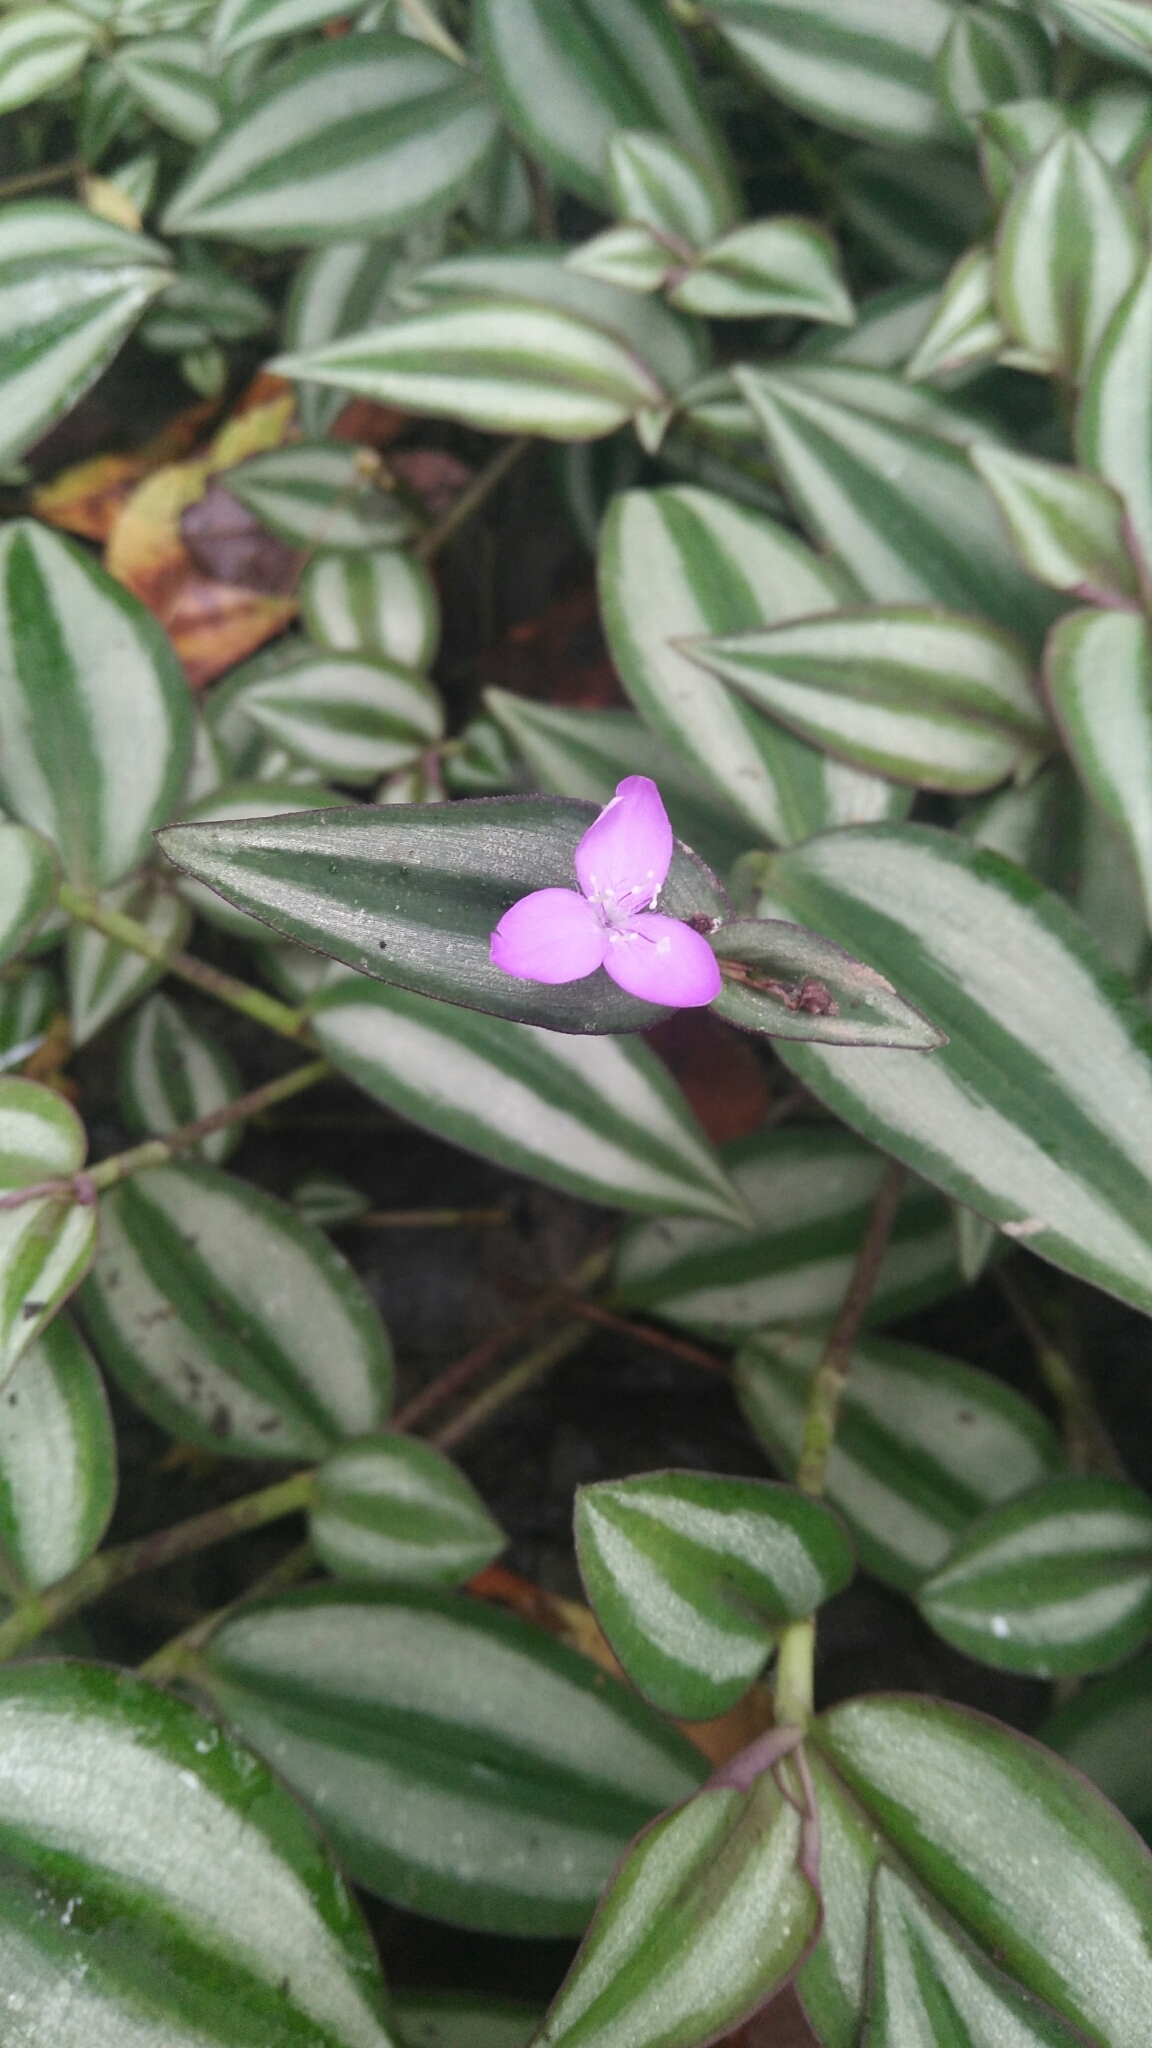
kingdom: Plantae
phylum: Tracheophyta
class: Liliopsida
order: Commelinales
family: Commelinaceae
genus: Tradescantia
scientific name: Tradescantia zebrina
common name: Inchplant
